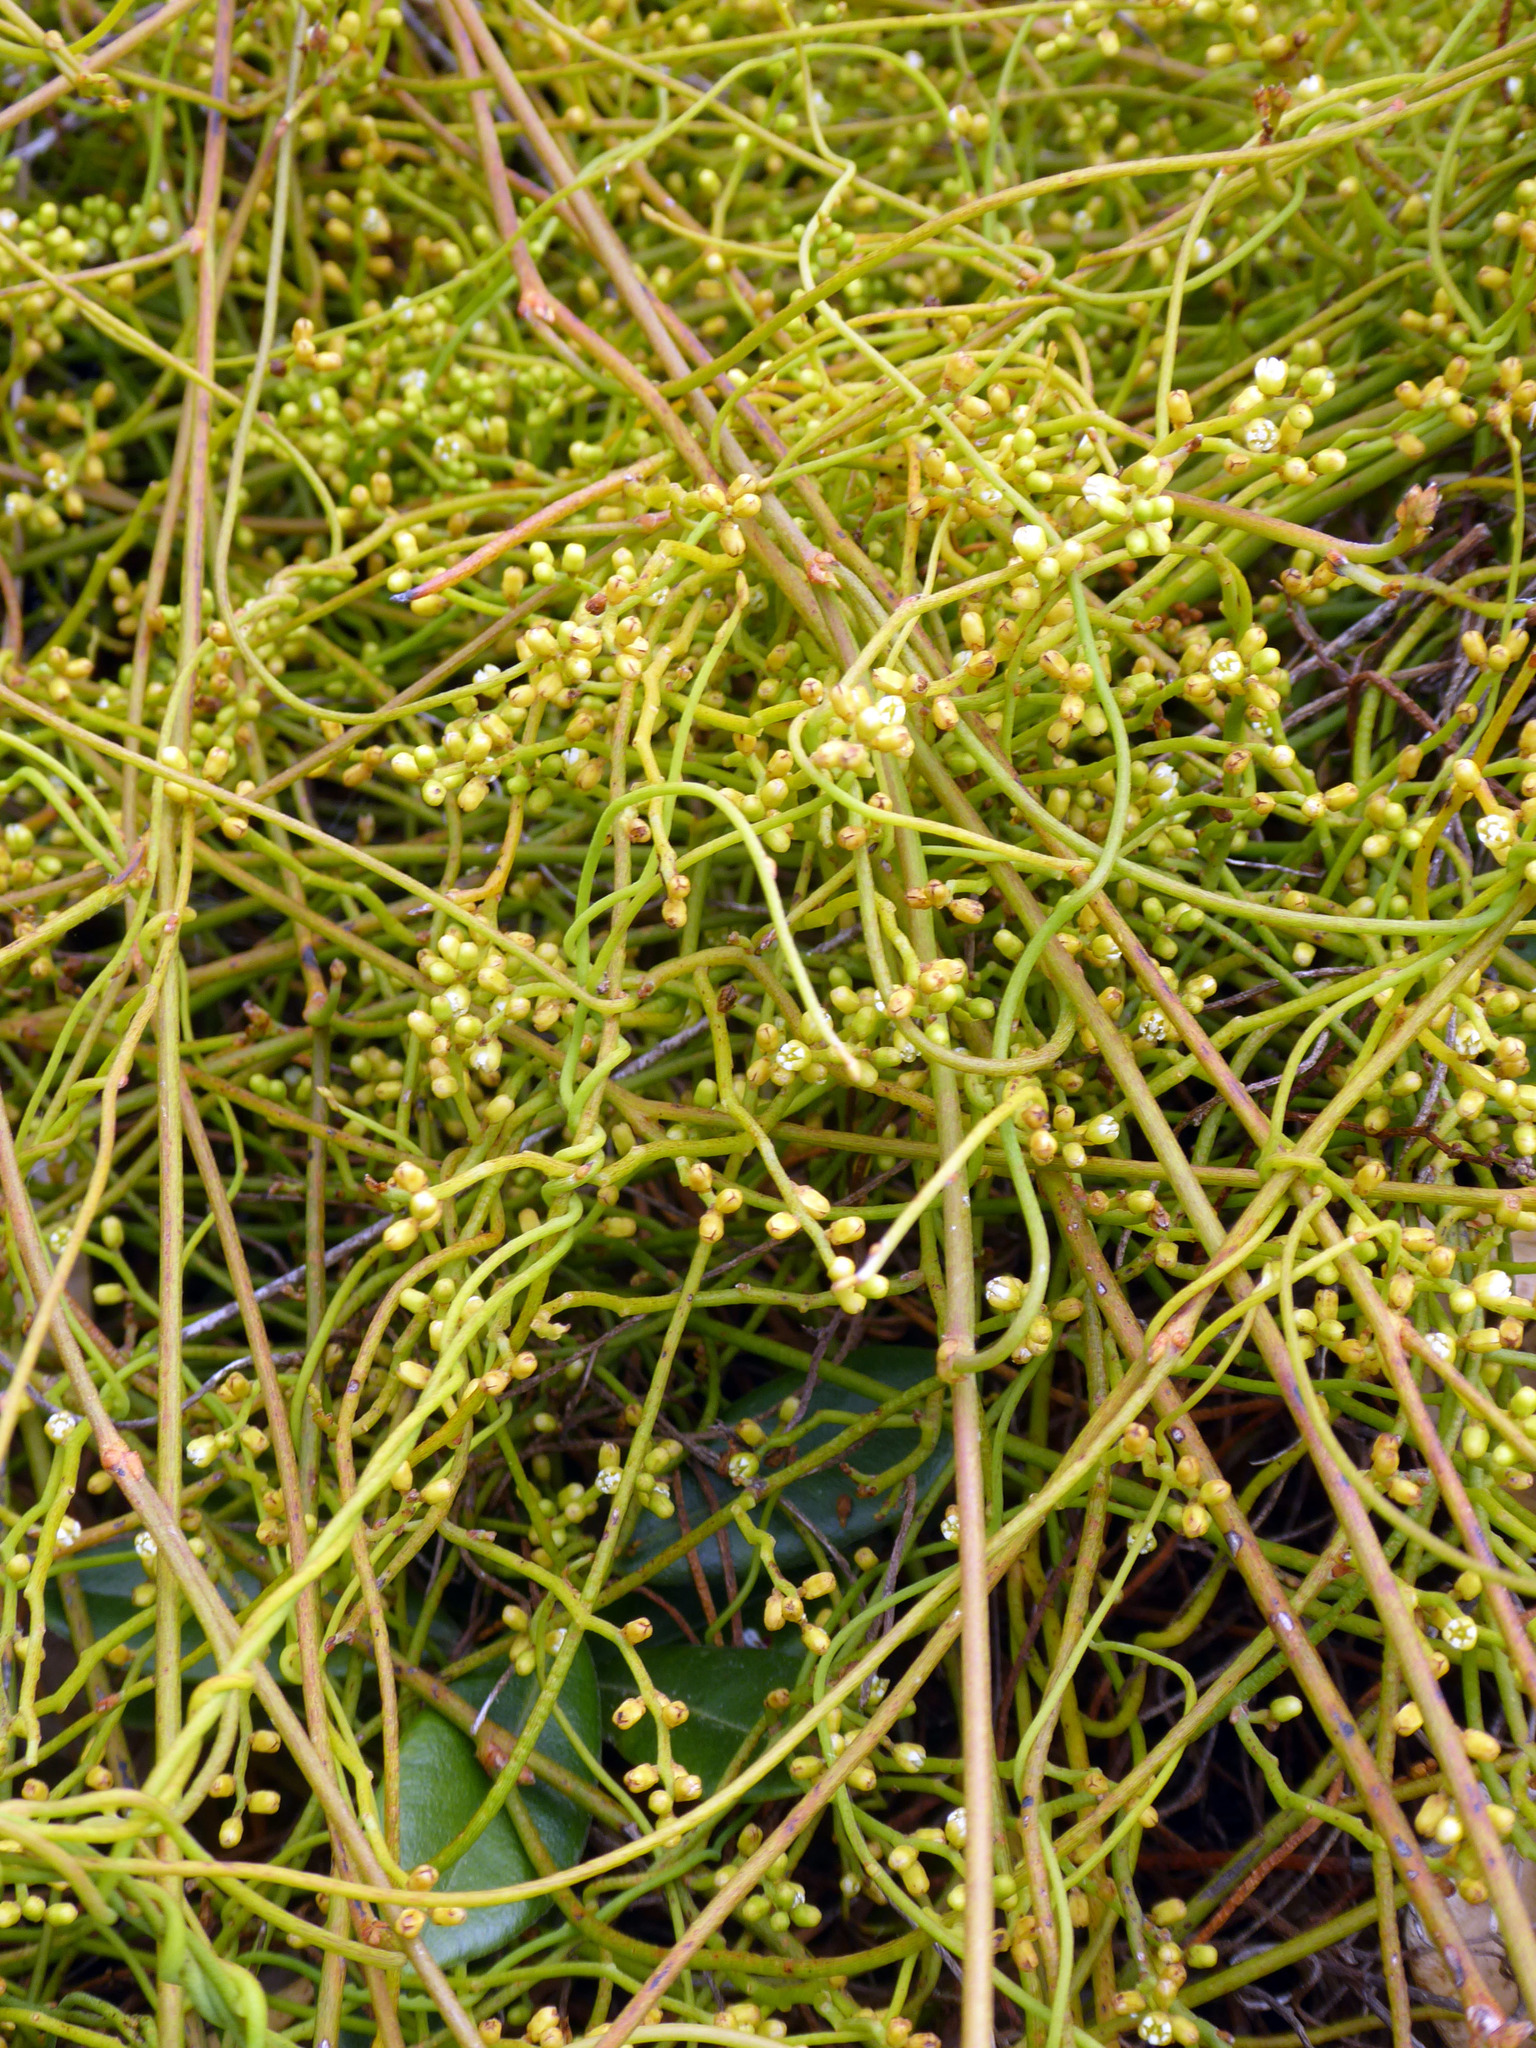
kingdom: Plantae
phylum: Tracheophyta
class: Magnoliopsida
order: Laurales
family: Lauraceae
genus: Cassytha
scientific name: Cassytha paniculata
